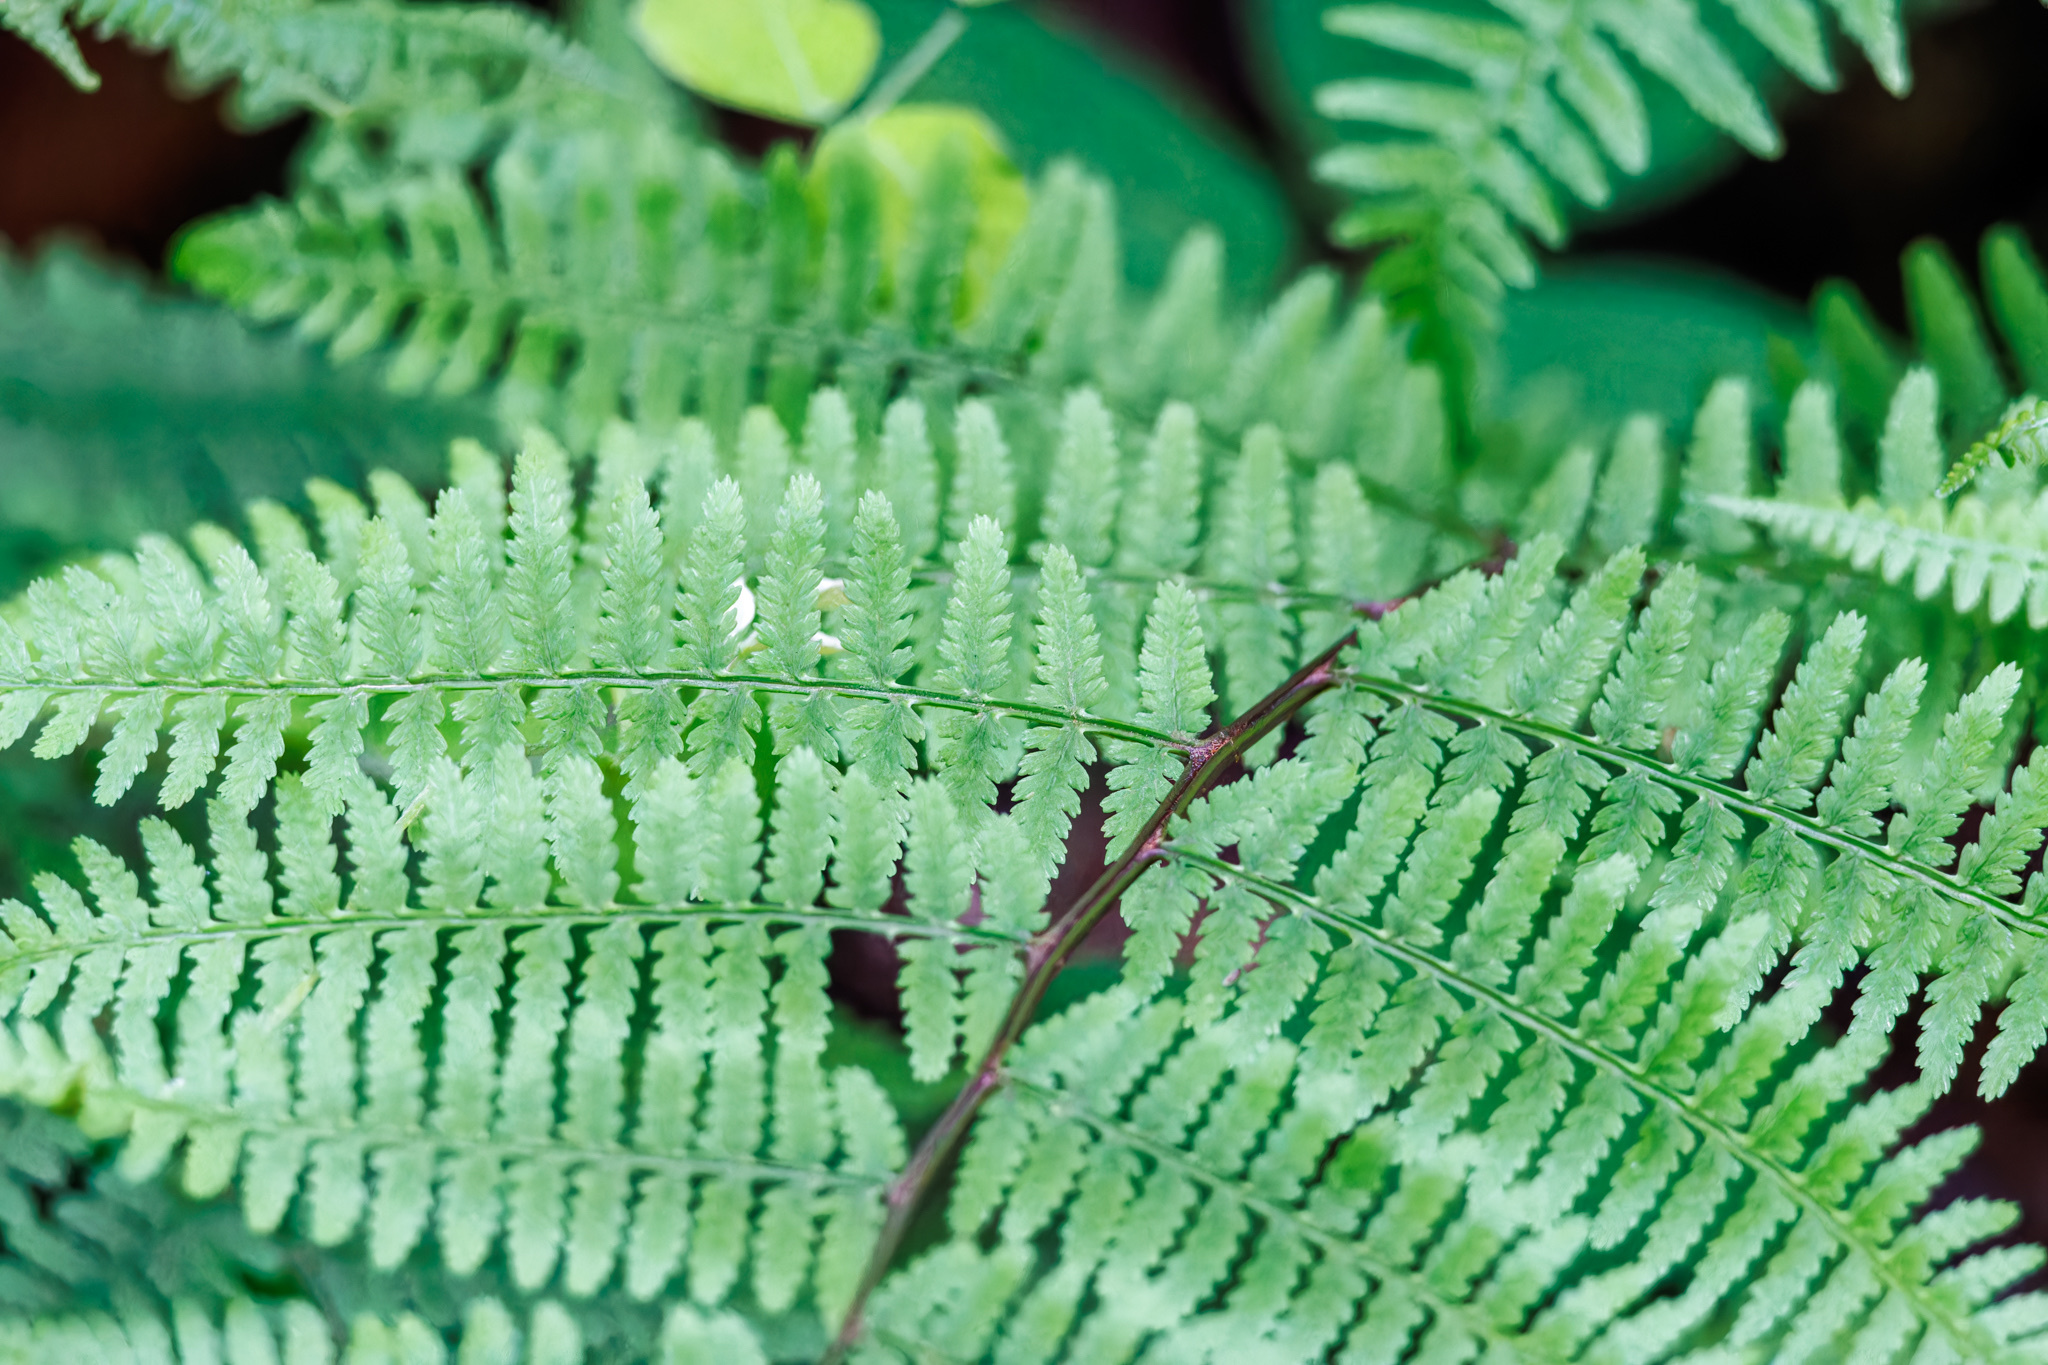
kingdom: Plantae
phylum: Tracheophyta
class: Polypodiopsida
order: Polypodiales
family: Athyriaceae
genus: Athyrium
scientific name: Athyrium asplenioides
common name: Southern lady fern
